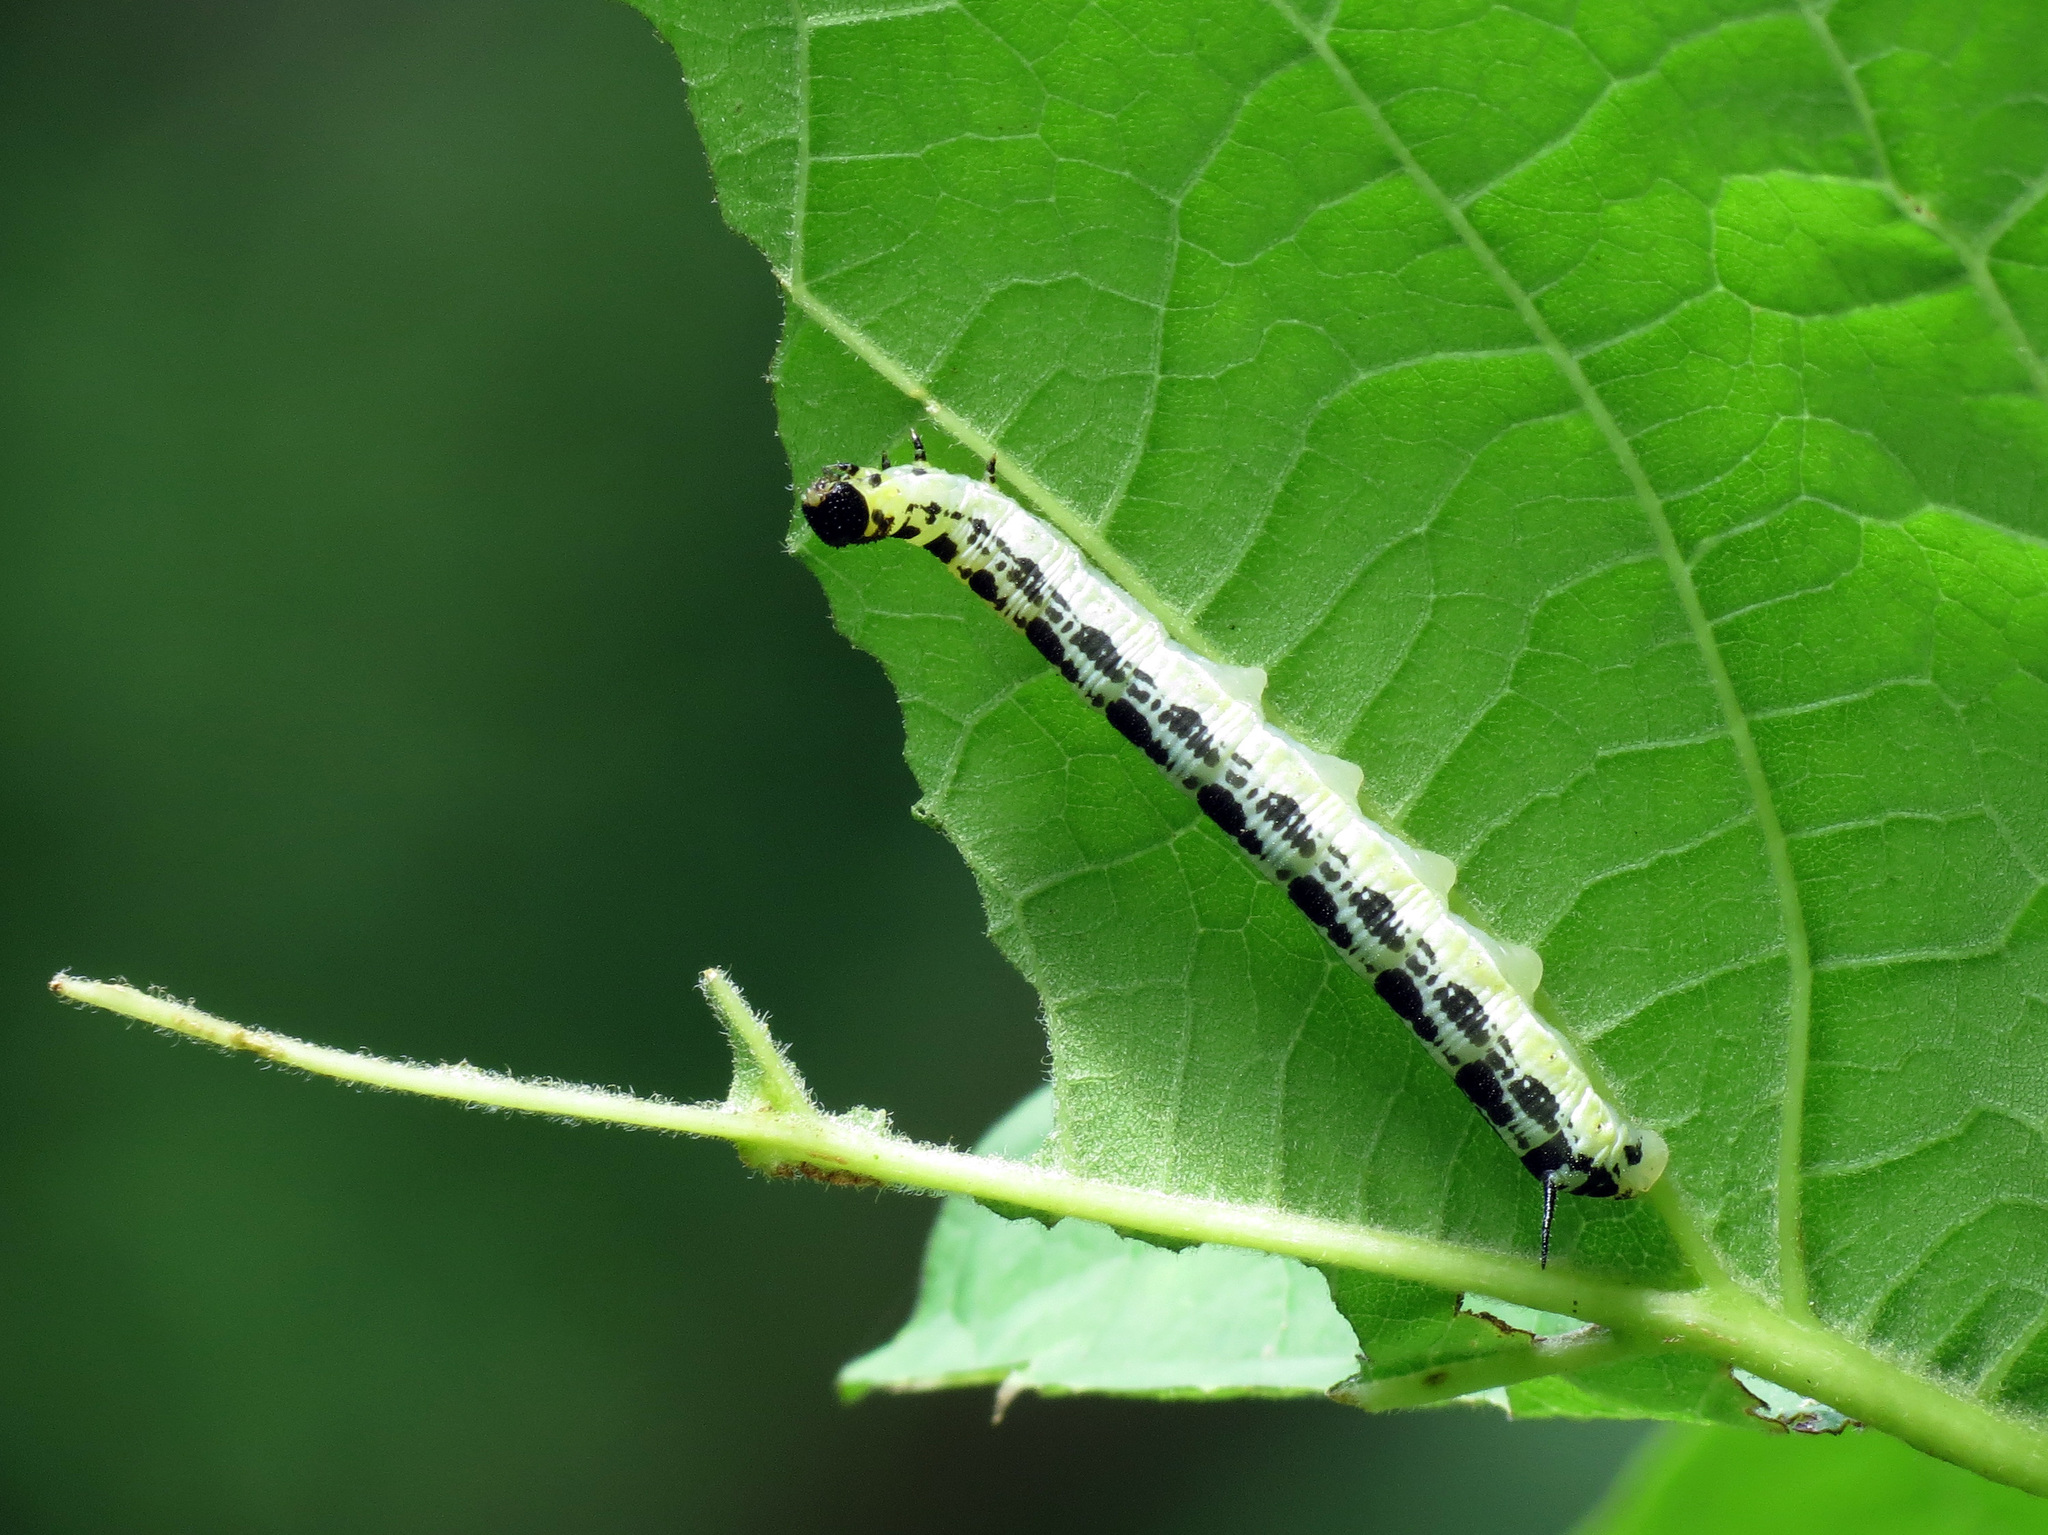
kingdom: Animalia
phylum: Arthropoda
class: Insecta
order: Lepidoptera
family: Sphingidae
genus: Ceratomia
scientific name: Ceratomia catalpae
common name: Catalpa hornworm
